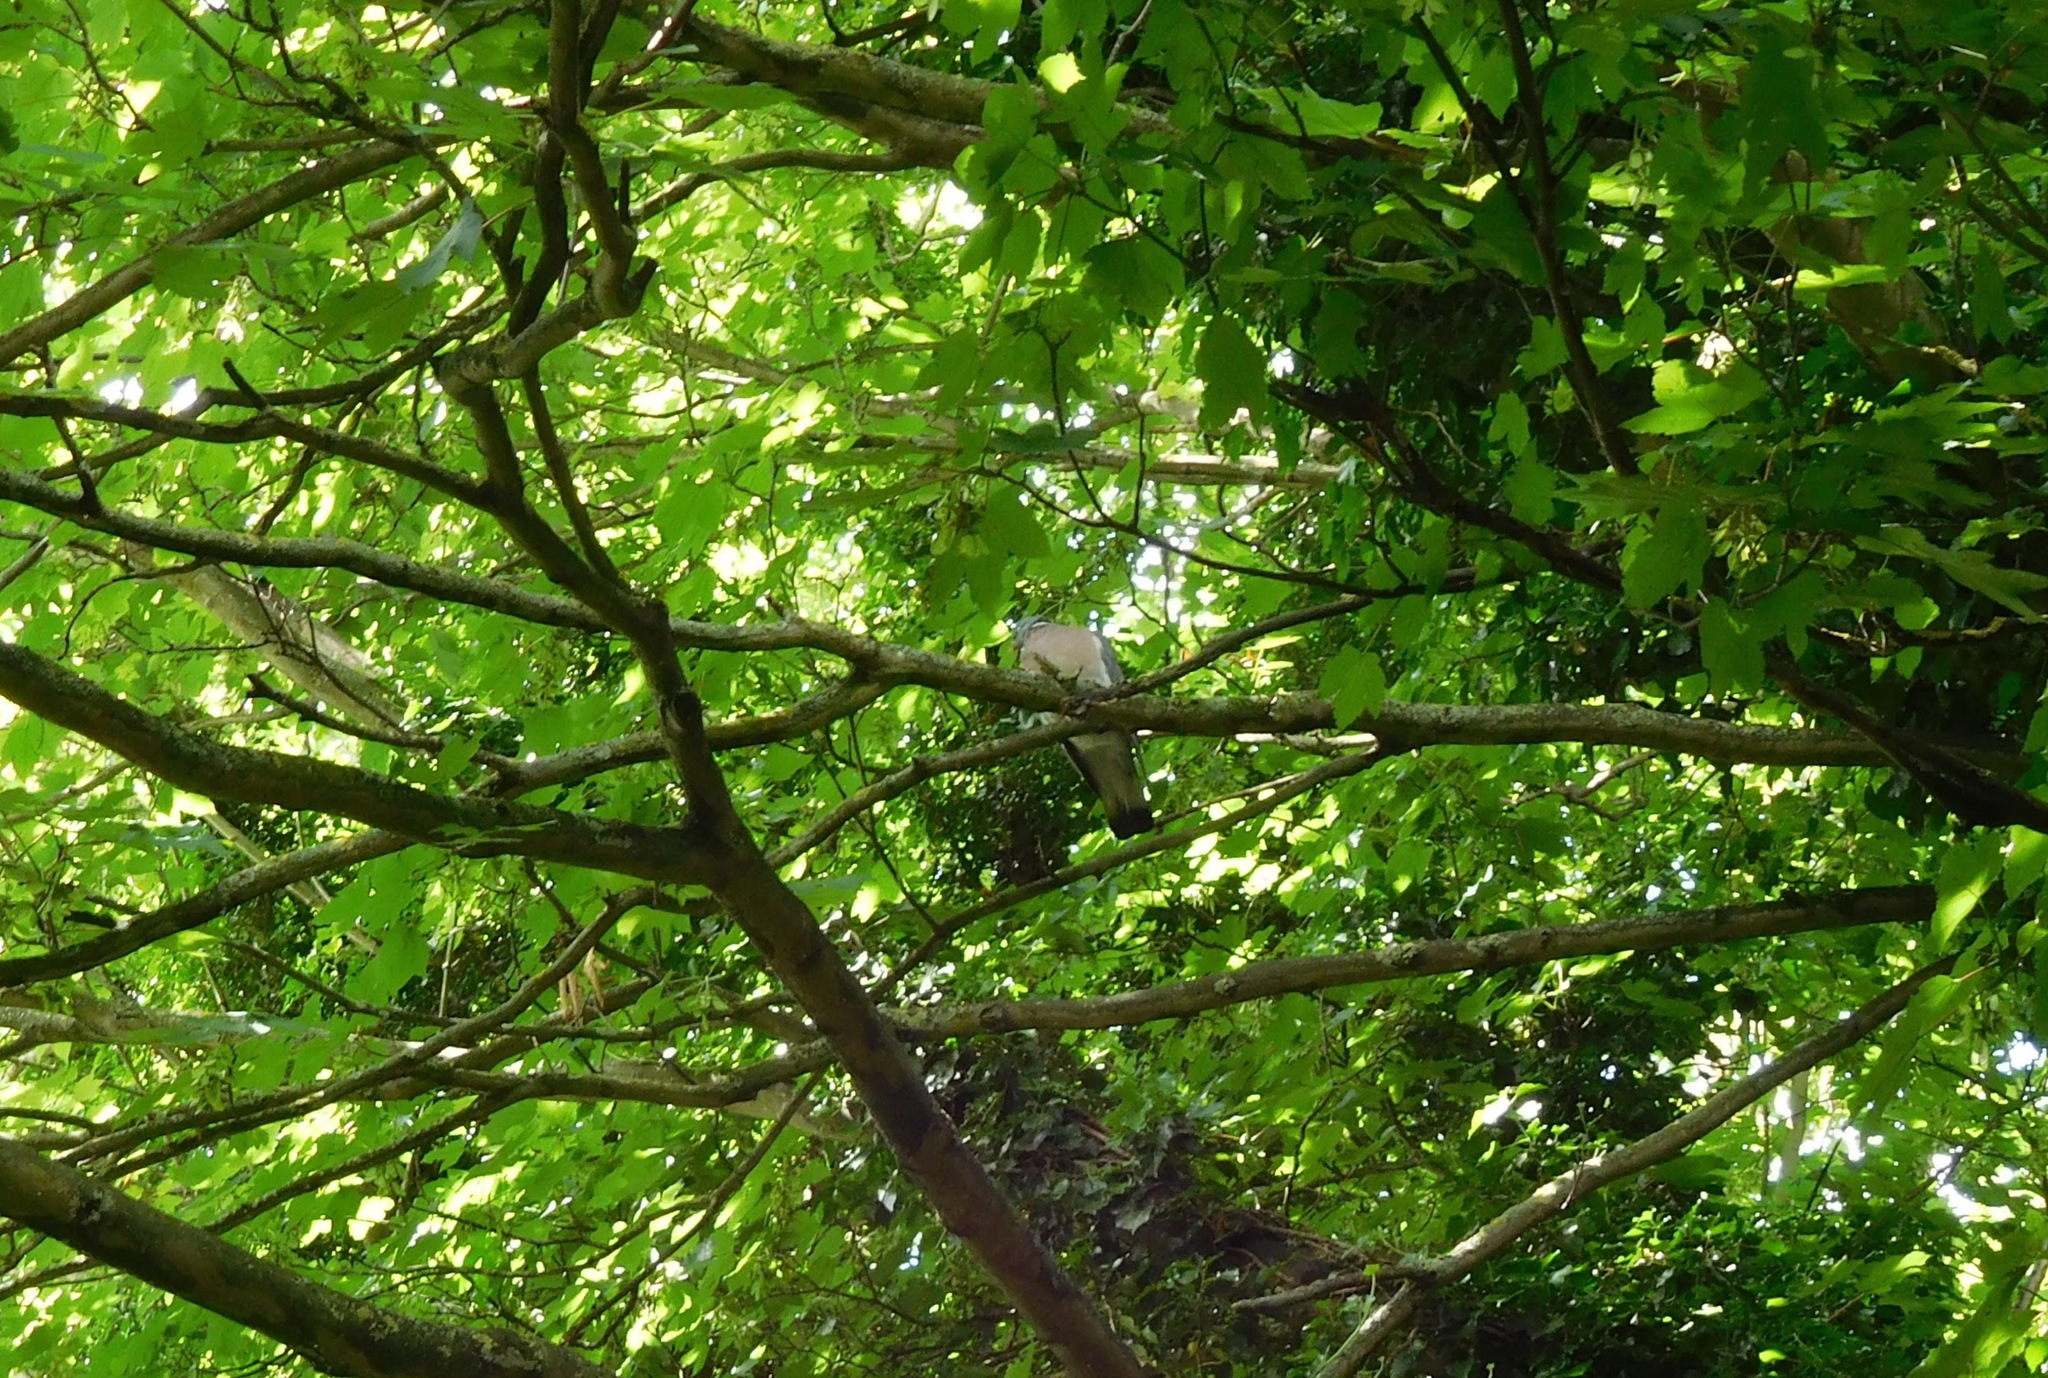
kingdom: Animalia
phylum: Chordata
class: Aves
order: Columbiformes
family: Columbidae
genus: Columba
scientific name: Columba palumbus
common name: Common wood pigeon
